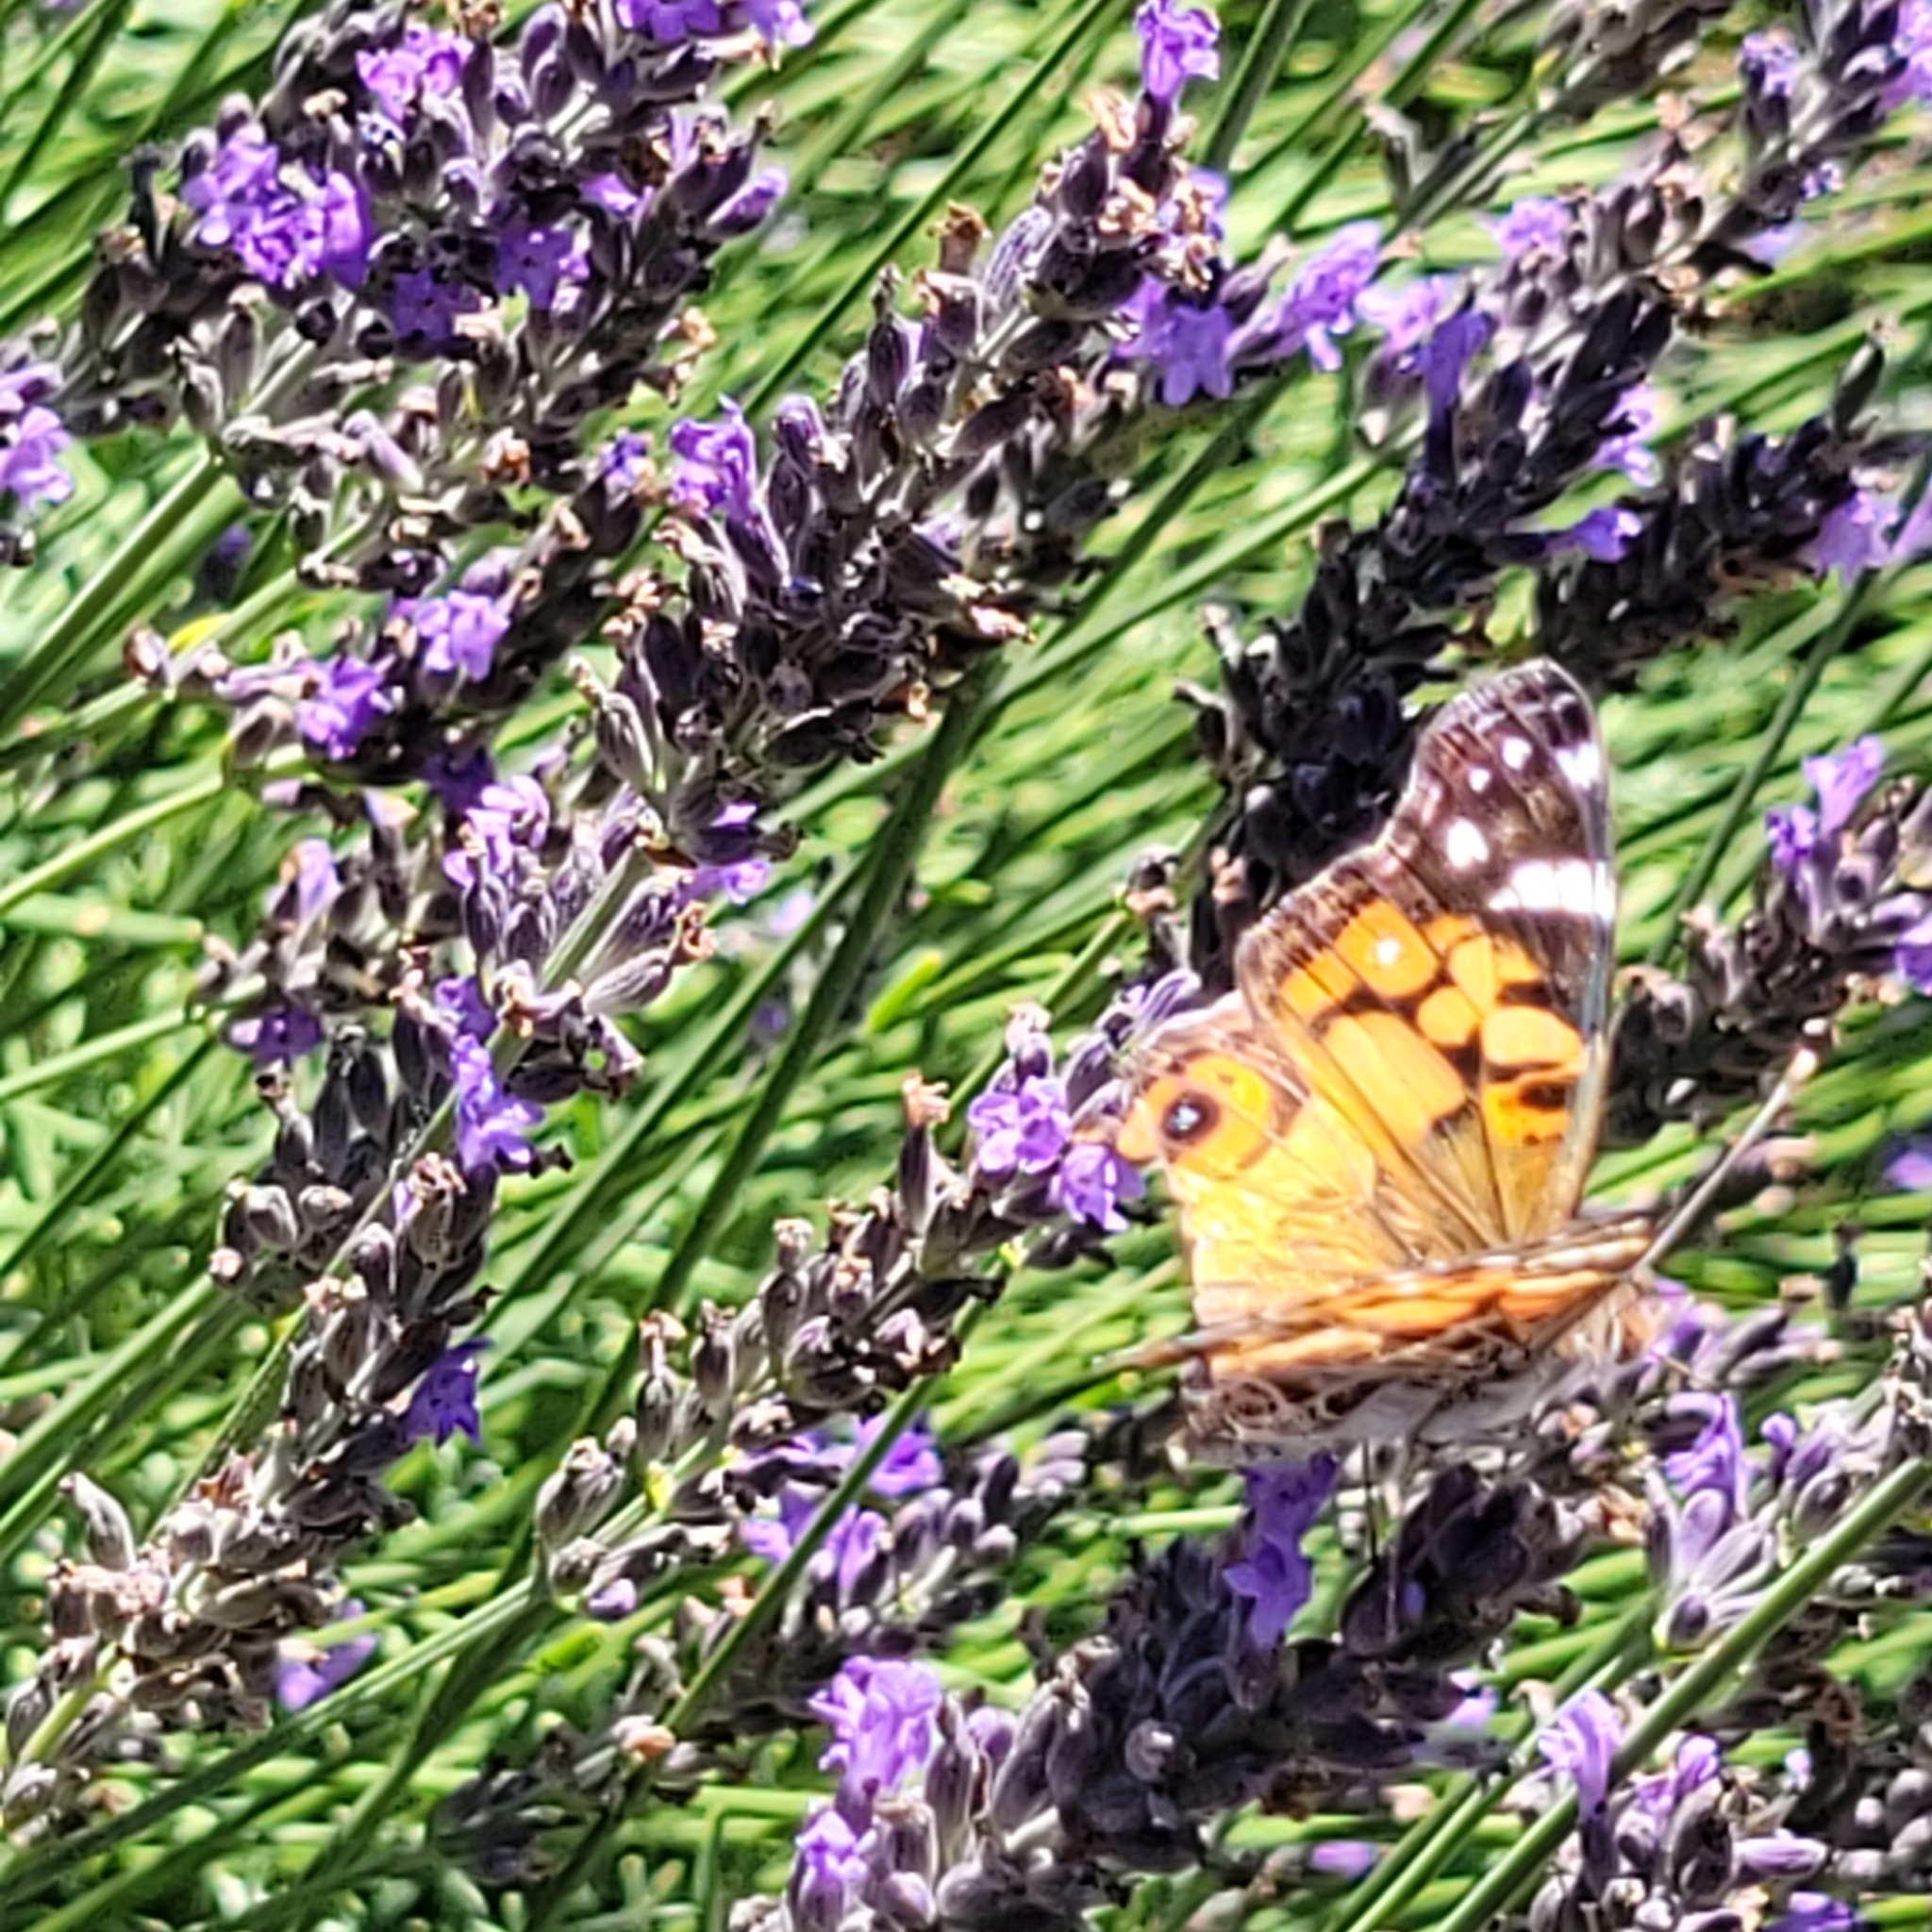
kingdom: Animalia
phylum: Arthropoda
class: Insecta
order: Lepidoptera
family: Nymphalidae
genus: Vanessa
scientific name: Vanessa virginiensis
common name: American lady
